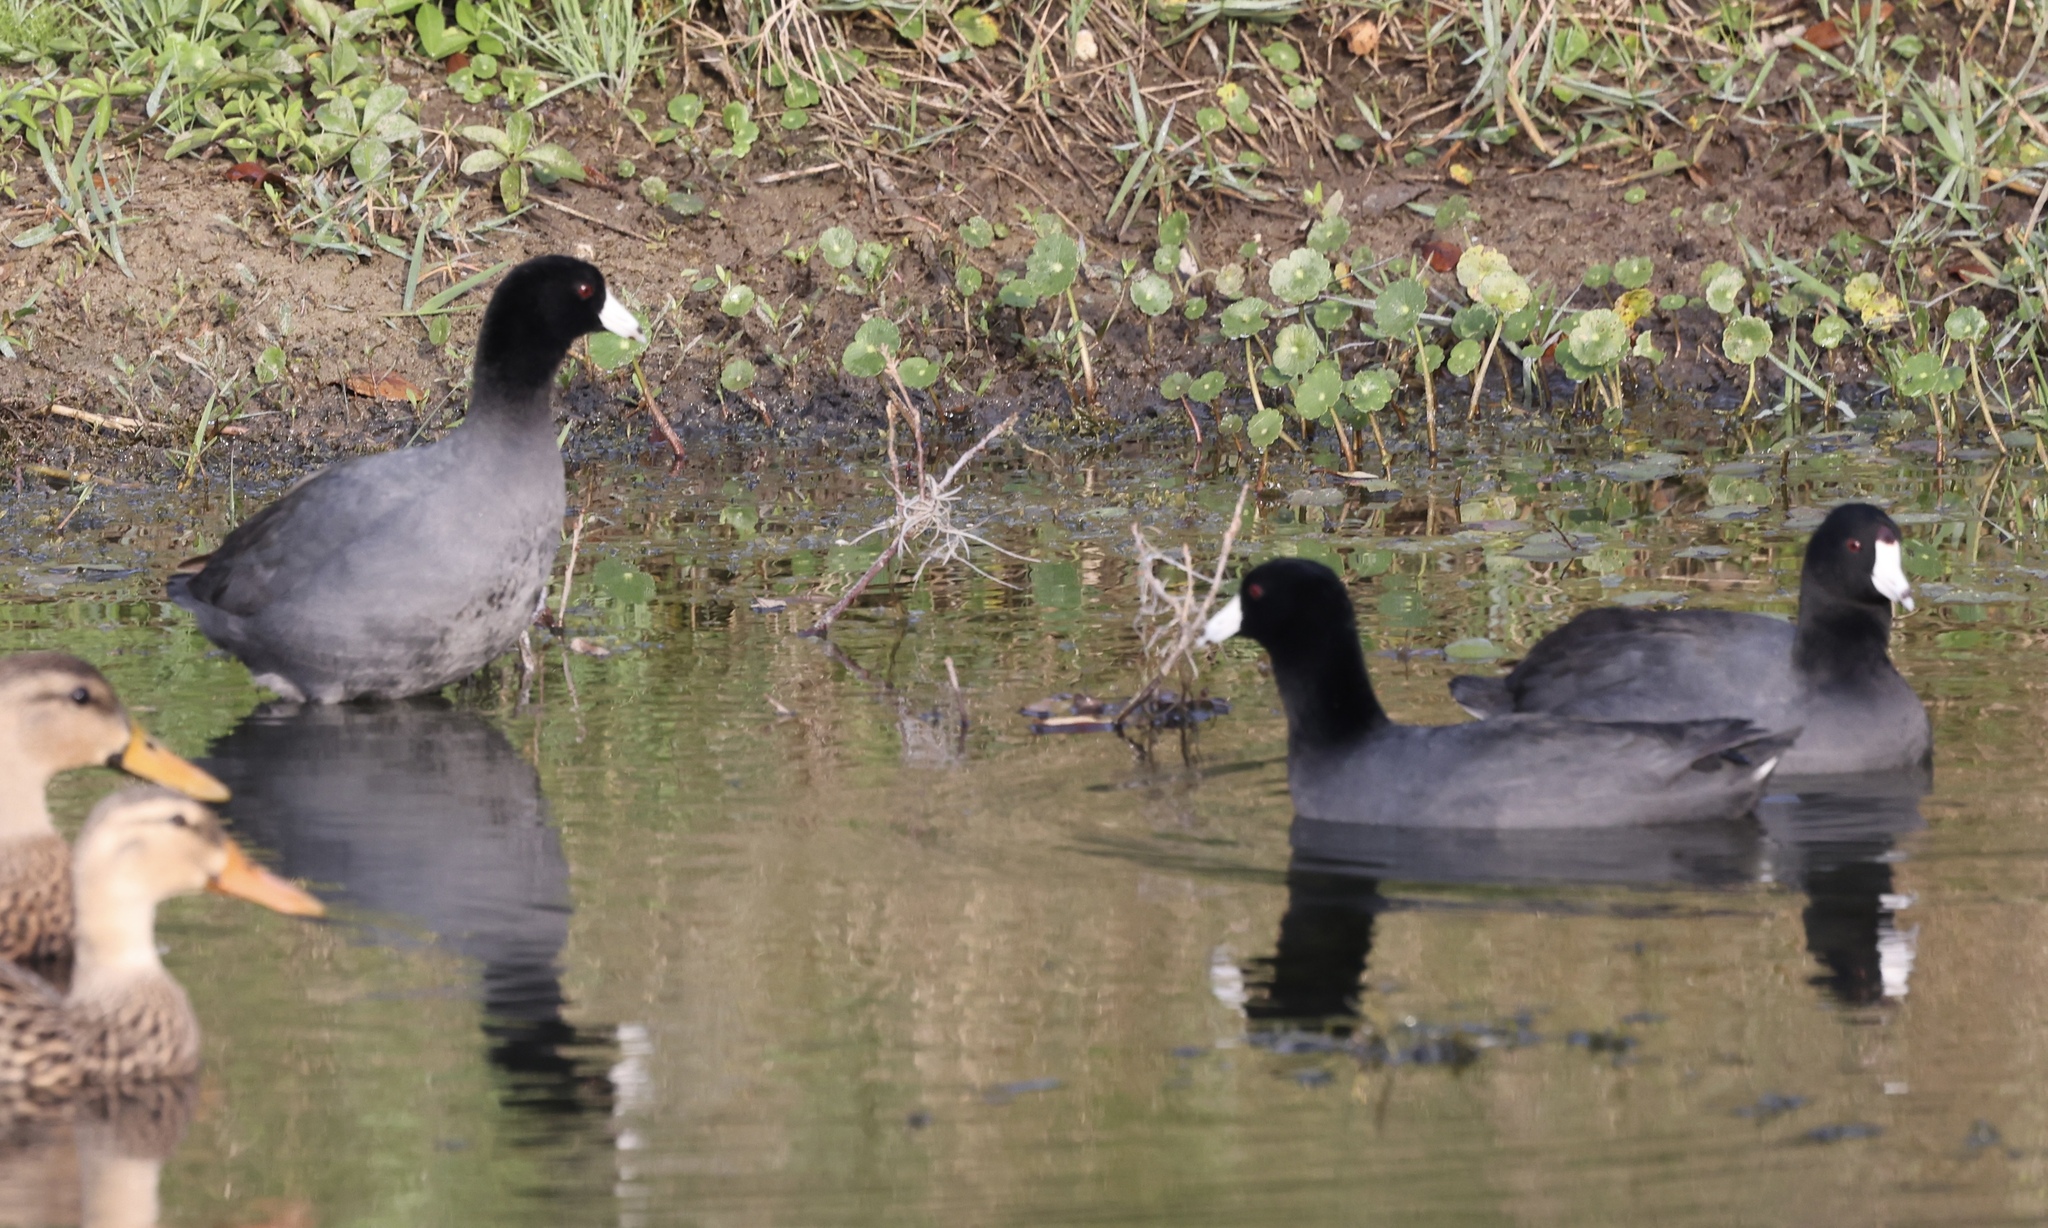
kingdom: Animalia
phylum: Chordata
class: Aves
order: Gruiformes
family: Rallidae
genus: Fulica
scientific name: Fulica americana
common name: American coot
